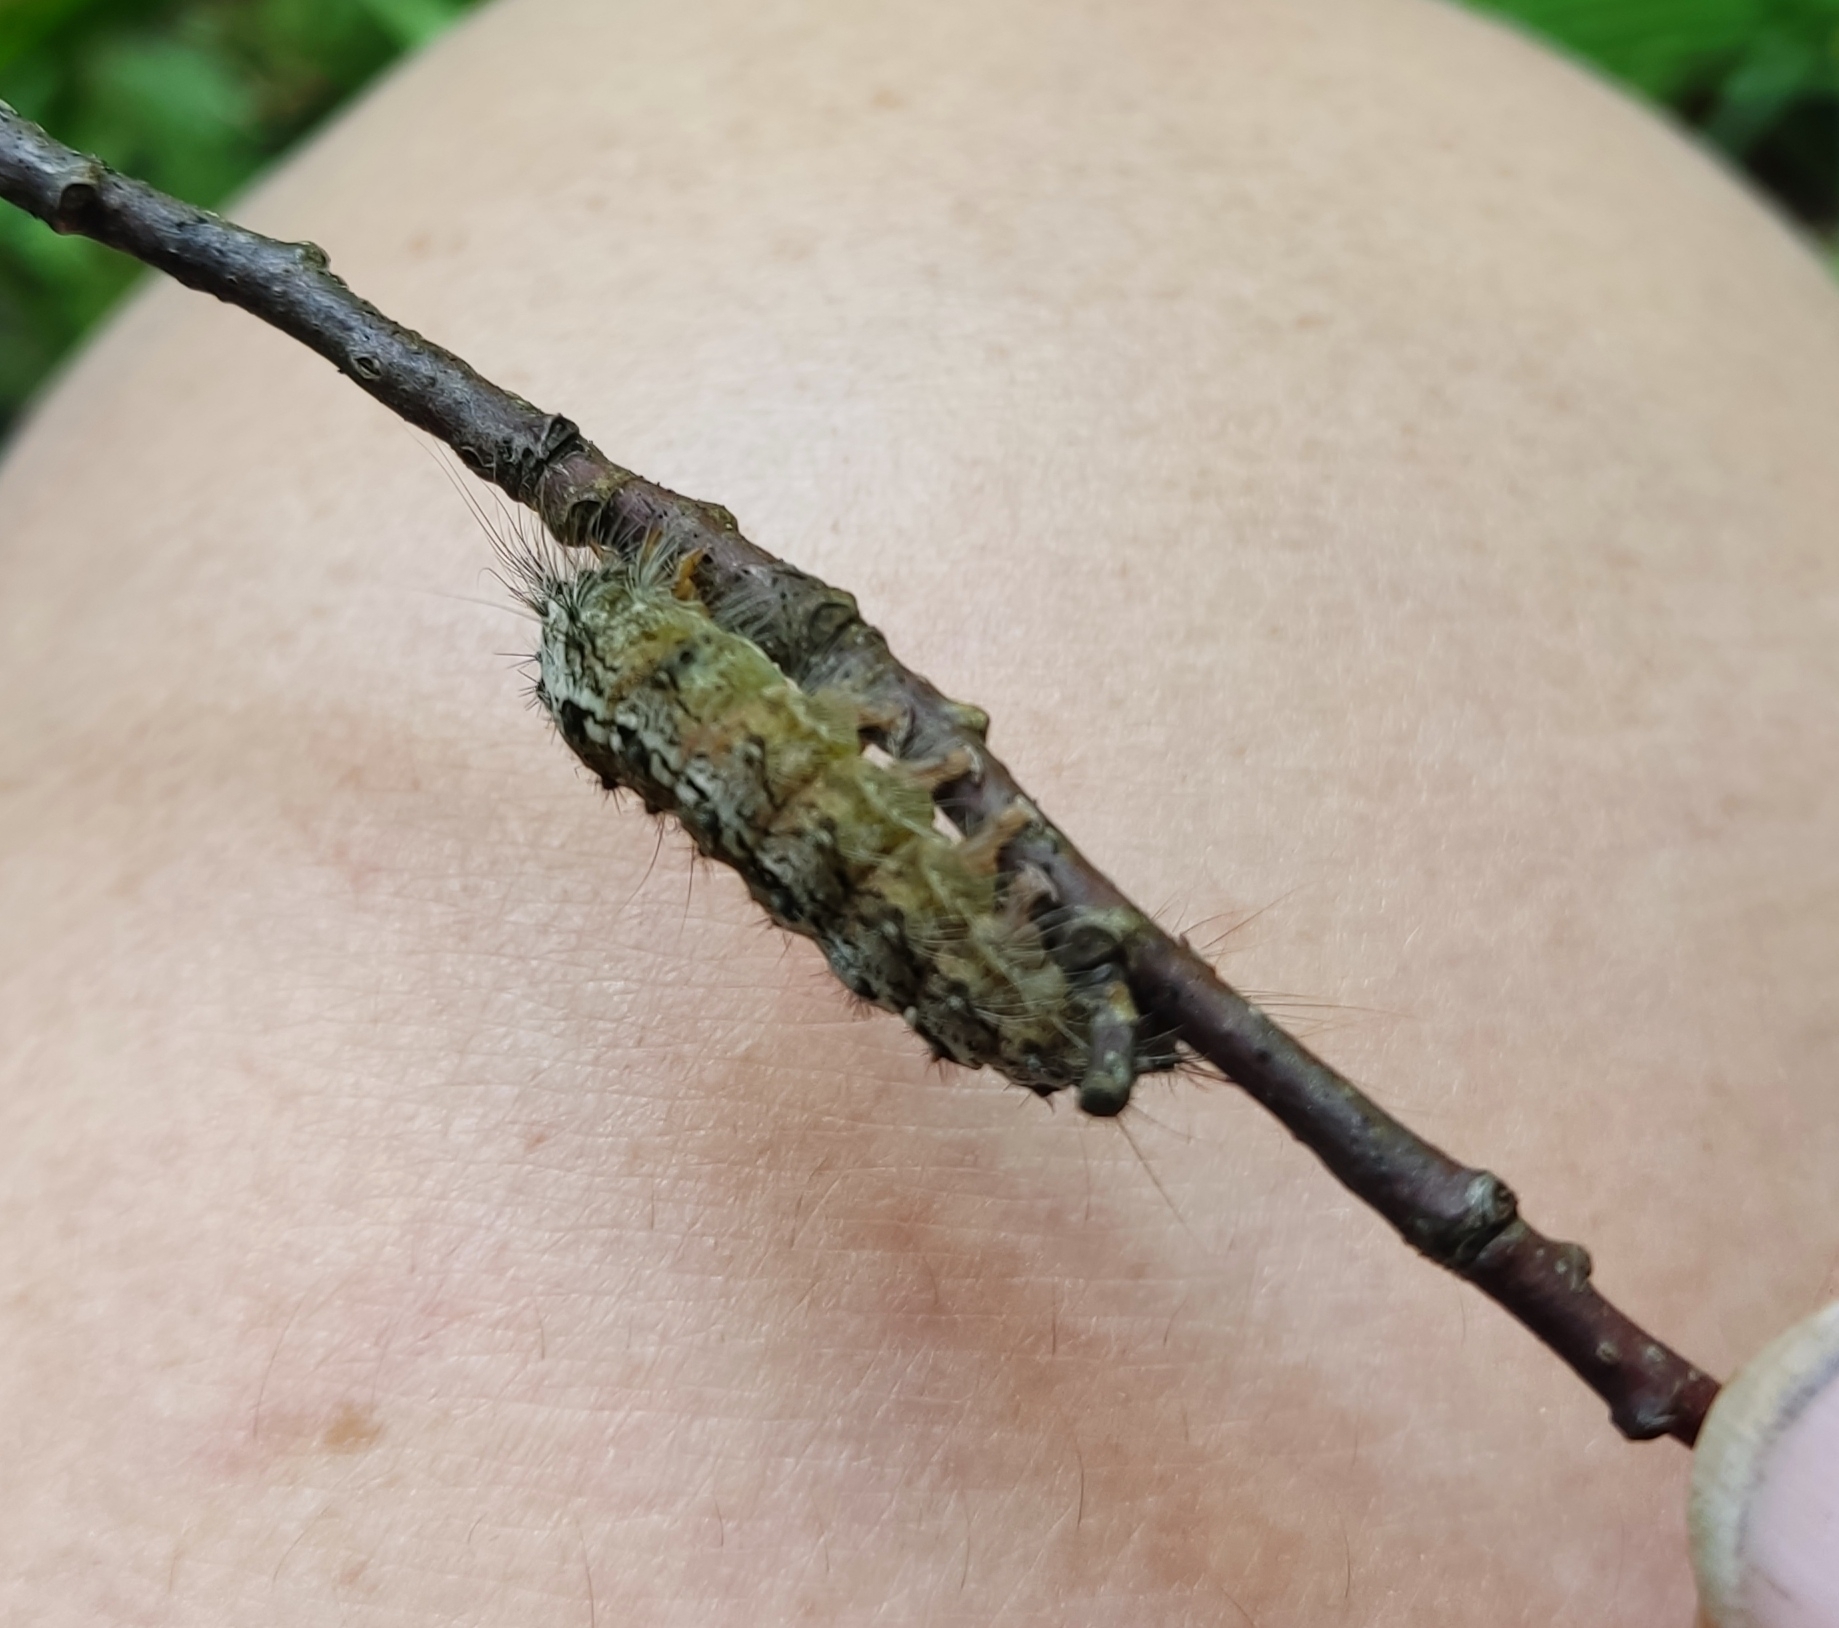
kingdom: Animalia
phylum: Arthropoda
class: Insecta
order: Lepidoptera
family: Erebidae
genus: Lymantria
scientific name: Lymantria monacha
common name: Black arches
